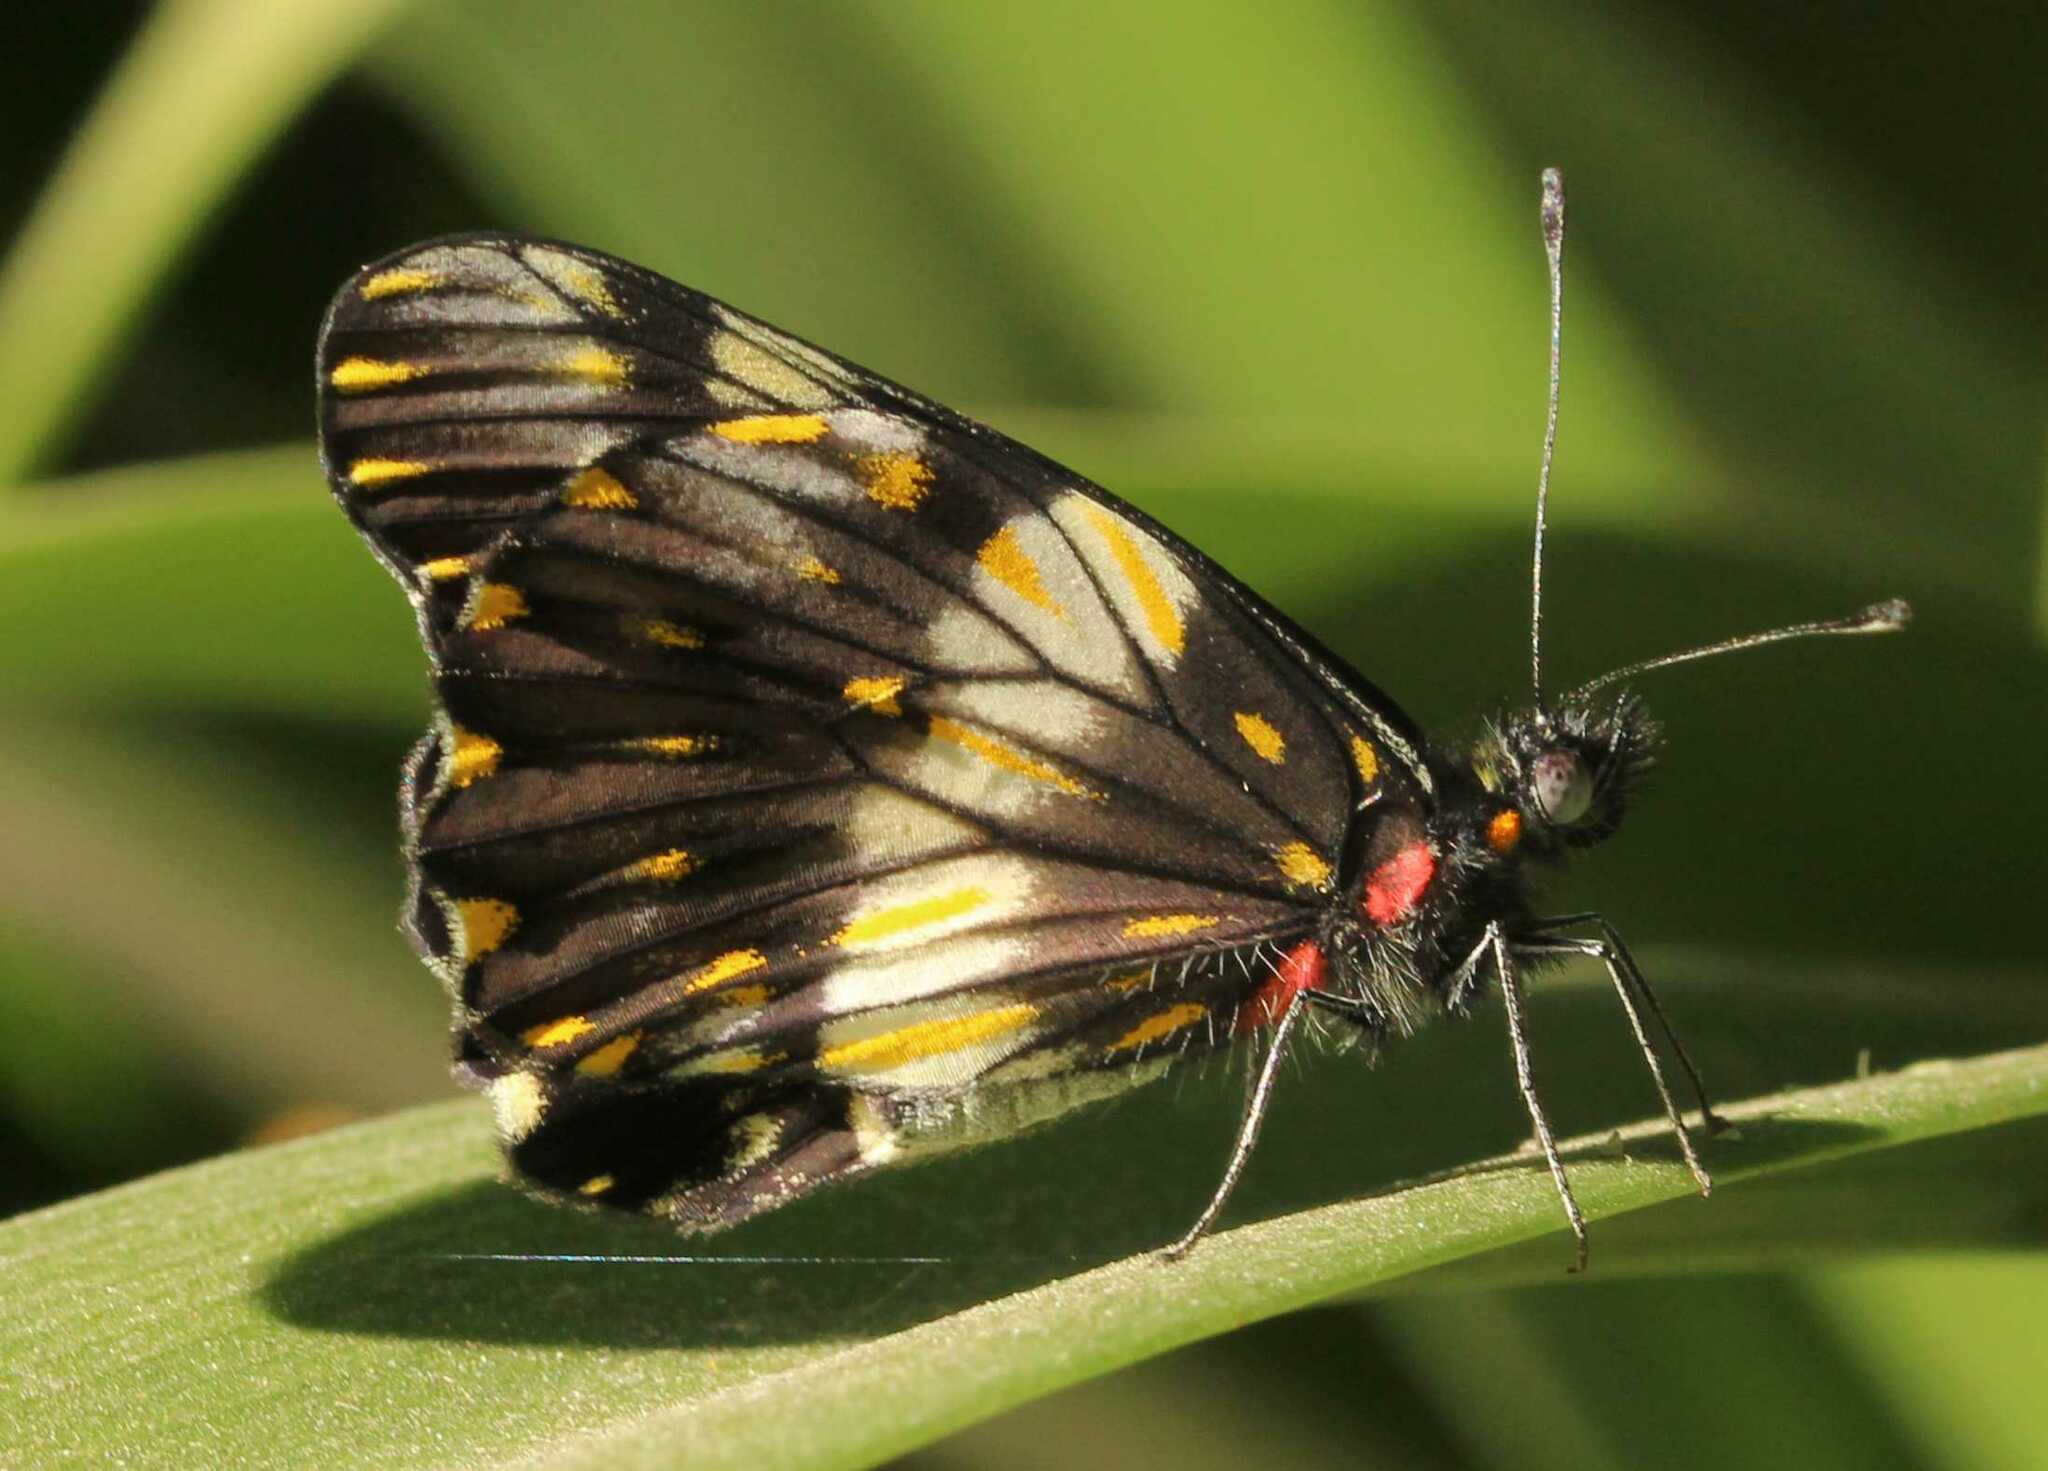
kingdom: Animalia
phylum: Arthropoda
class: Insecta
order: Lepidoptera
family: Pieridae
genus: Archonias
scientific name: Archonias nimbice
